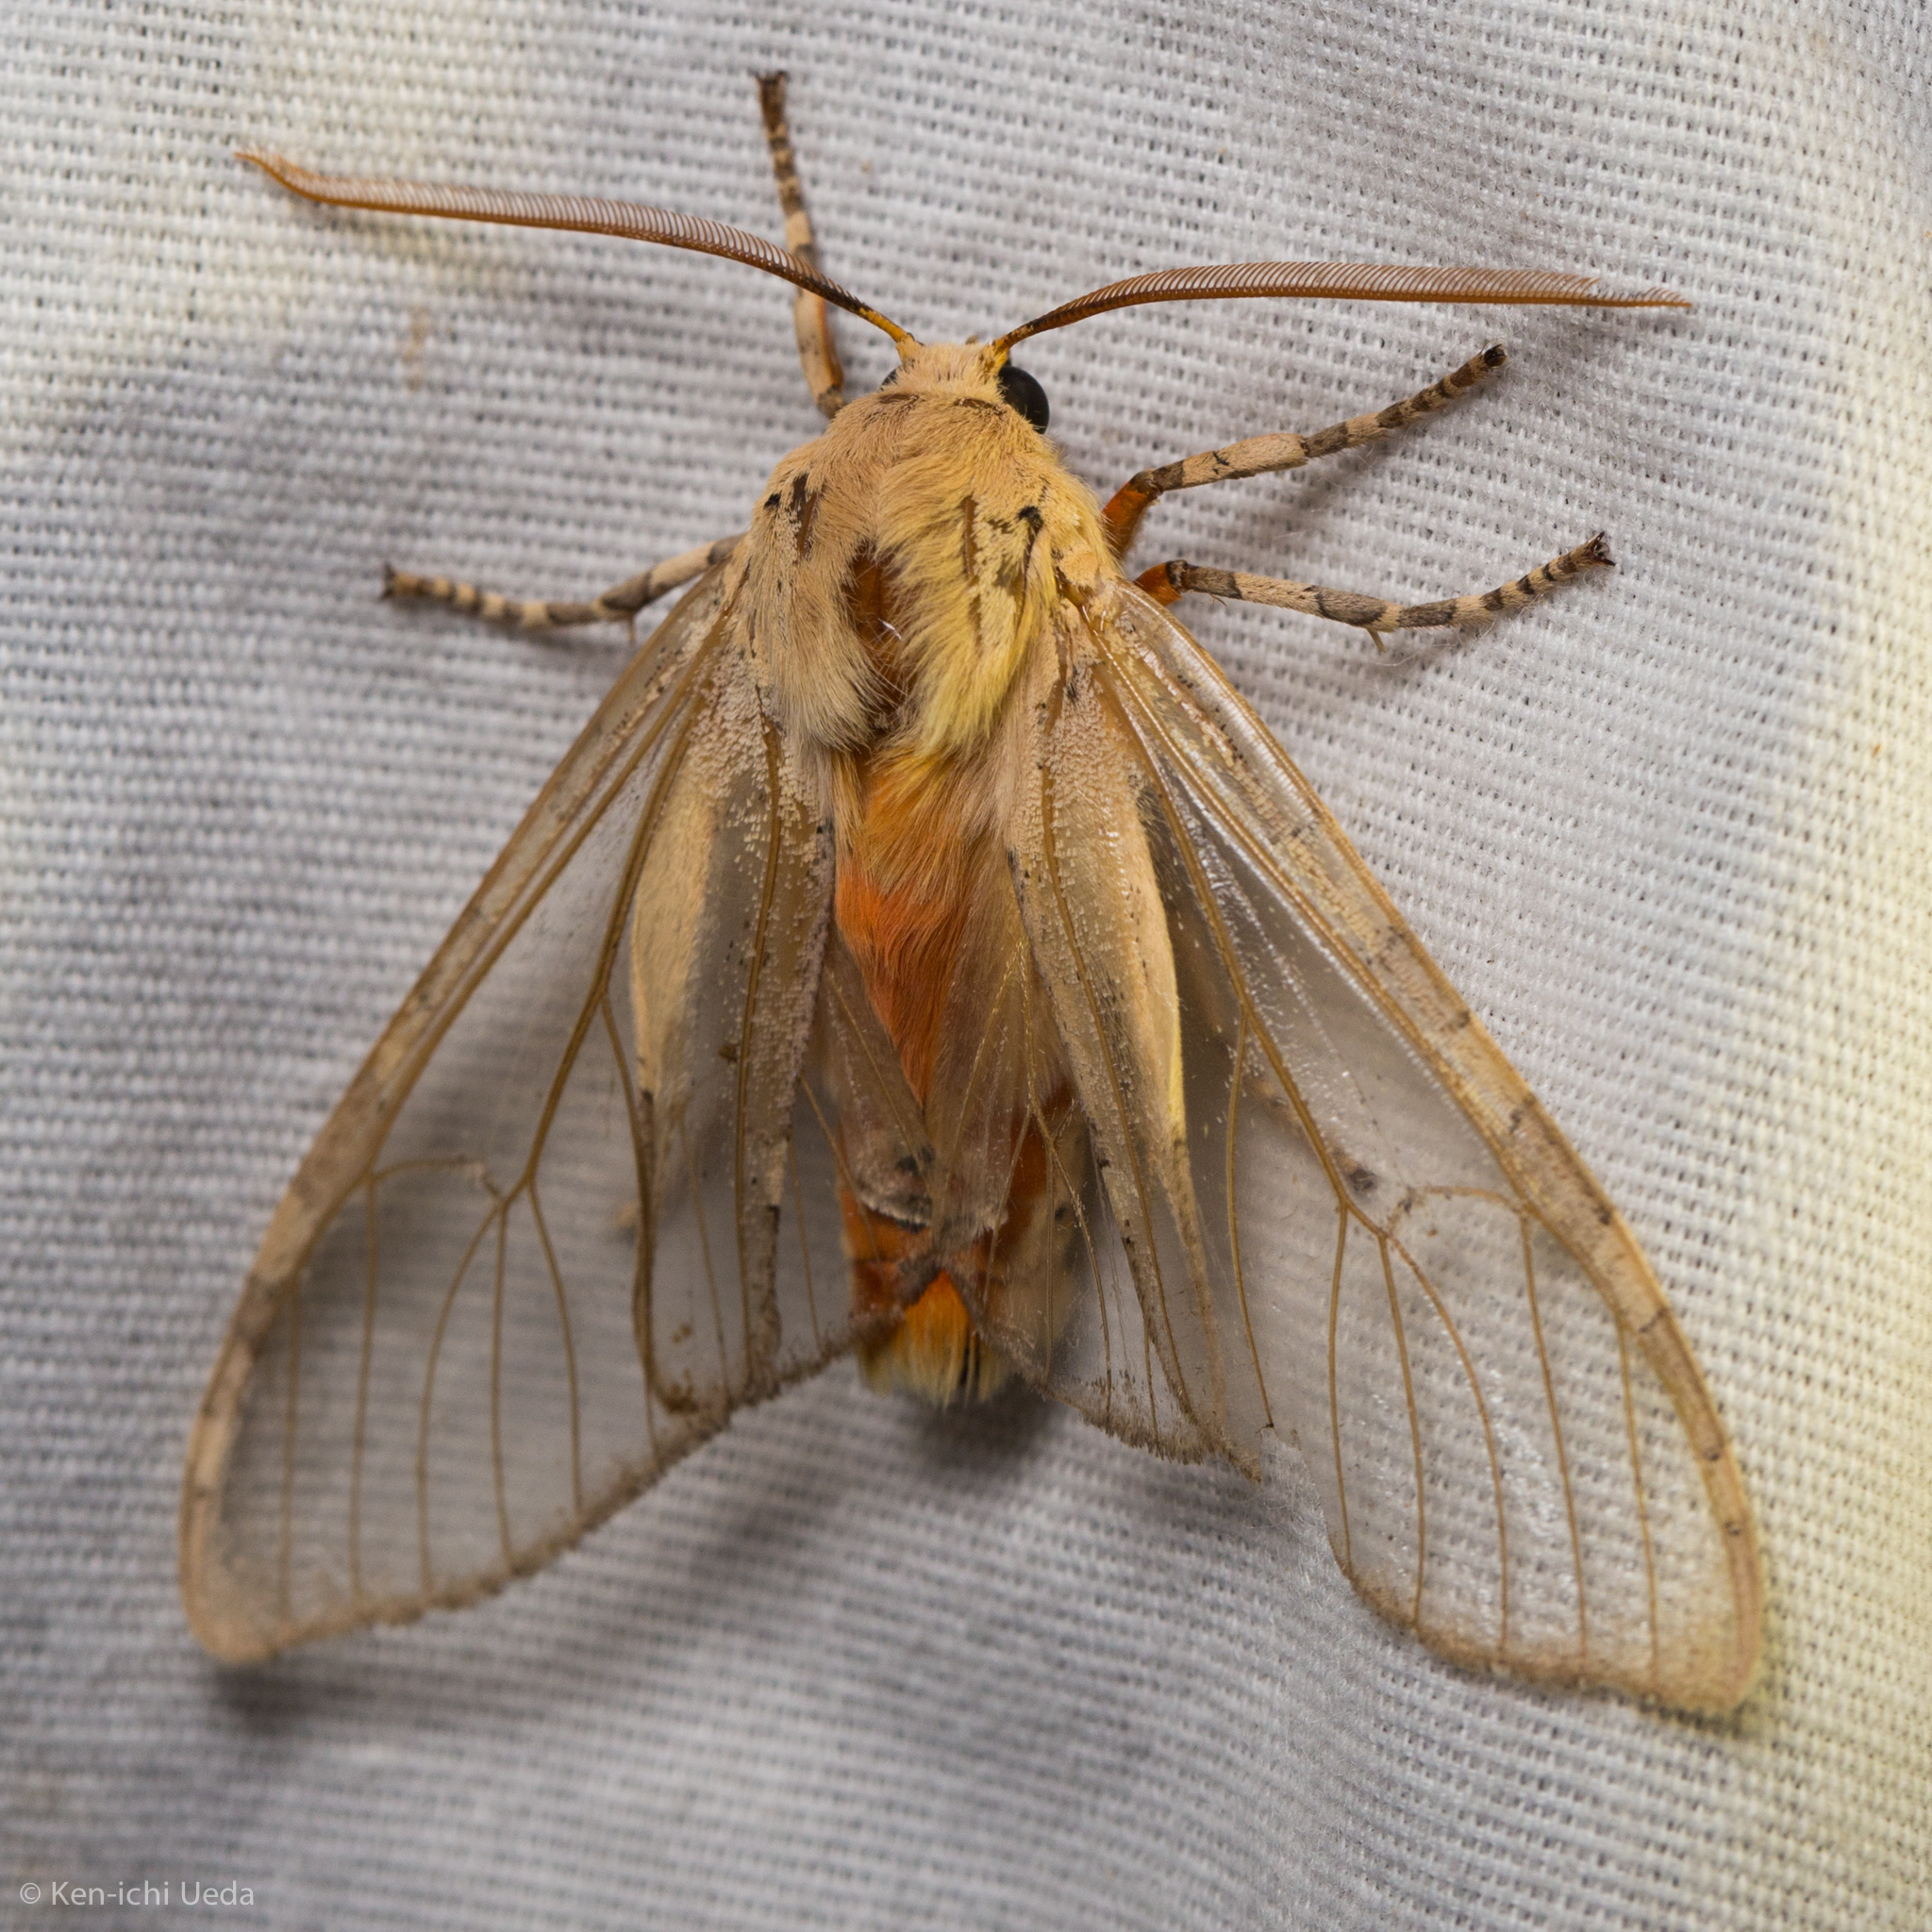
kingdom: Animalia
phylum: Arthropoda
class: Insecta
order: Lepidoptera
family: Erebidae
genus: Hemihyalea
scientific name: Hemihyalea edwardsii
